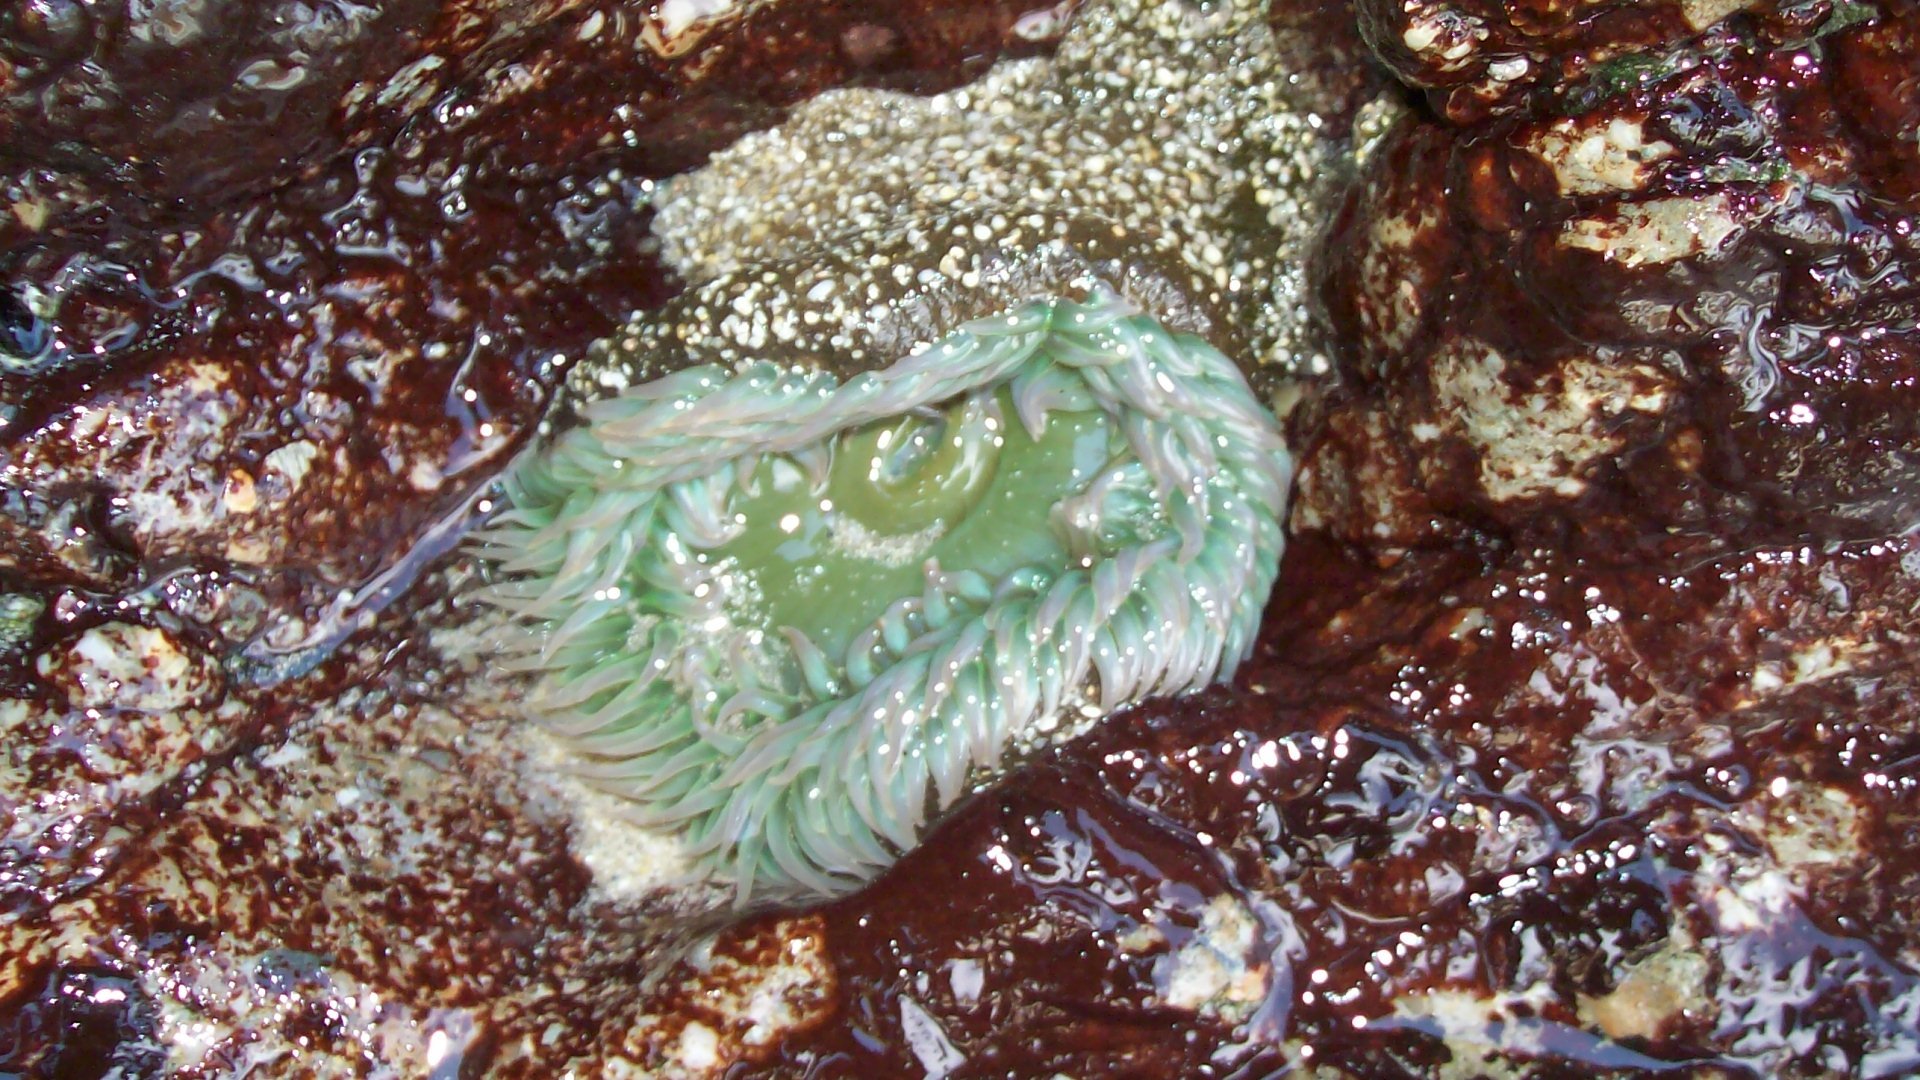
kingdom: Animalia
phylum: Cnidaria
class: Anthozoa
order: Actiniaria
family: Actiniidae
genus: Anthopleura
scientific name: Anthopleura xanthogrammica
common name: Giant green anemone
